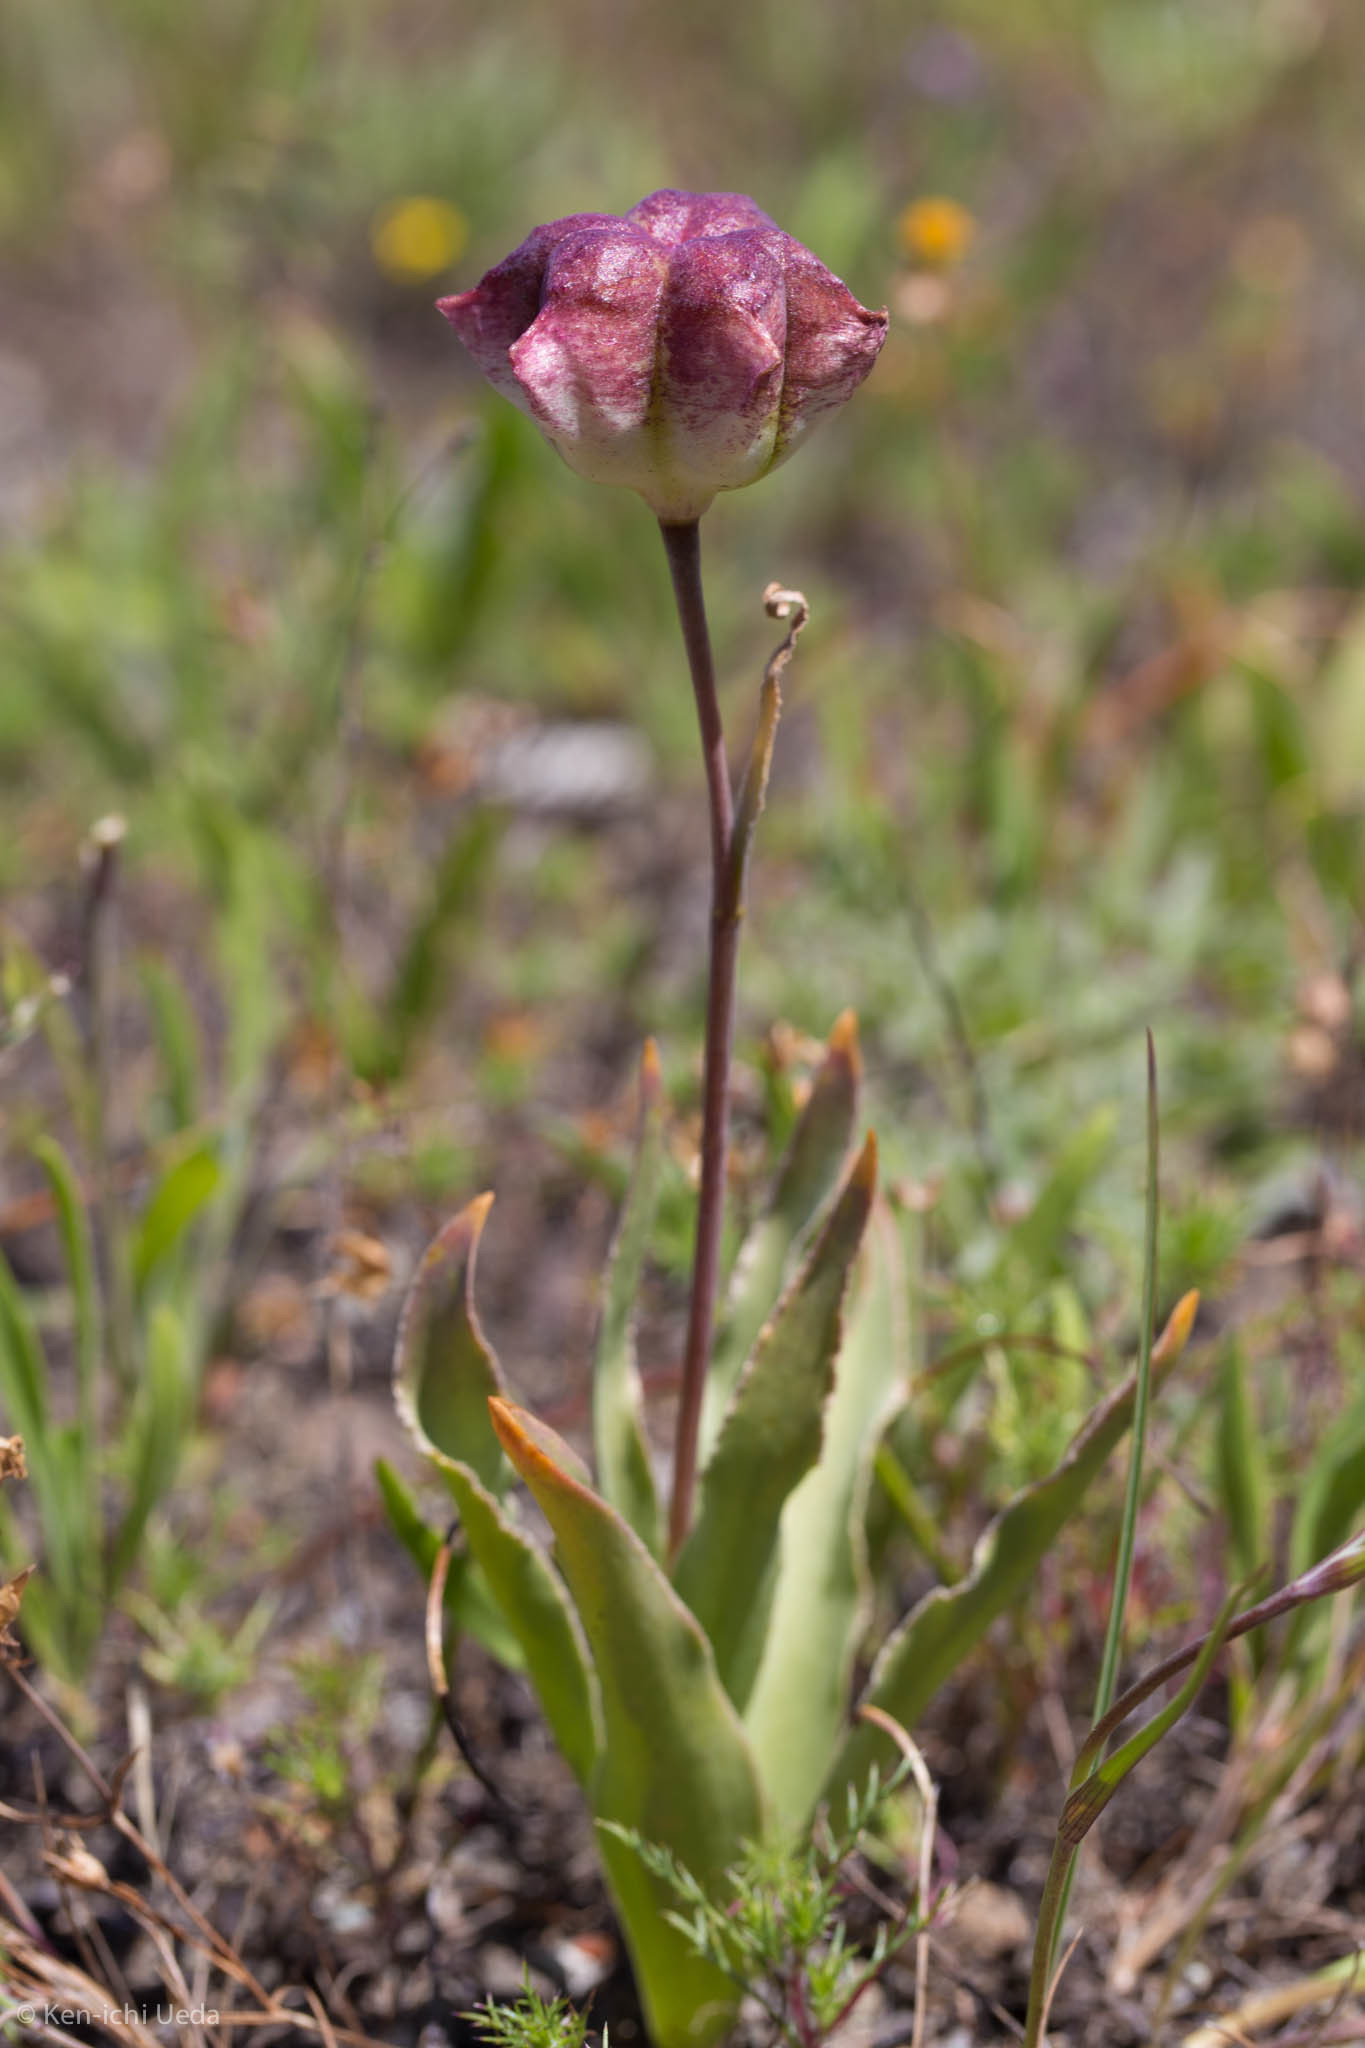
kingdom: Plantae
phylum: Tracheophyta
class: Liliopsida
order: Liliales
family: Liliaceae
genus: Fritillaria
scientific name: Fritillaria pluriflora
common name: Adobe-lily
